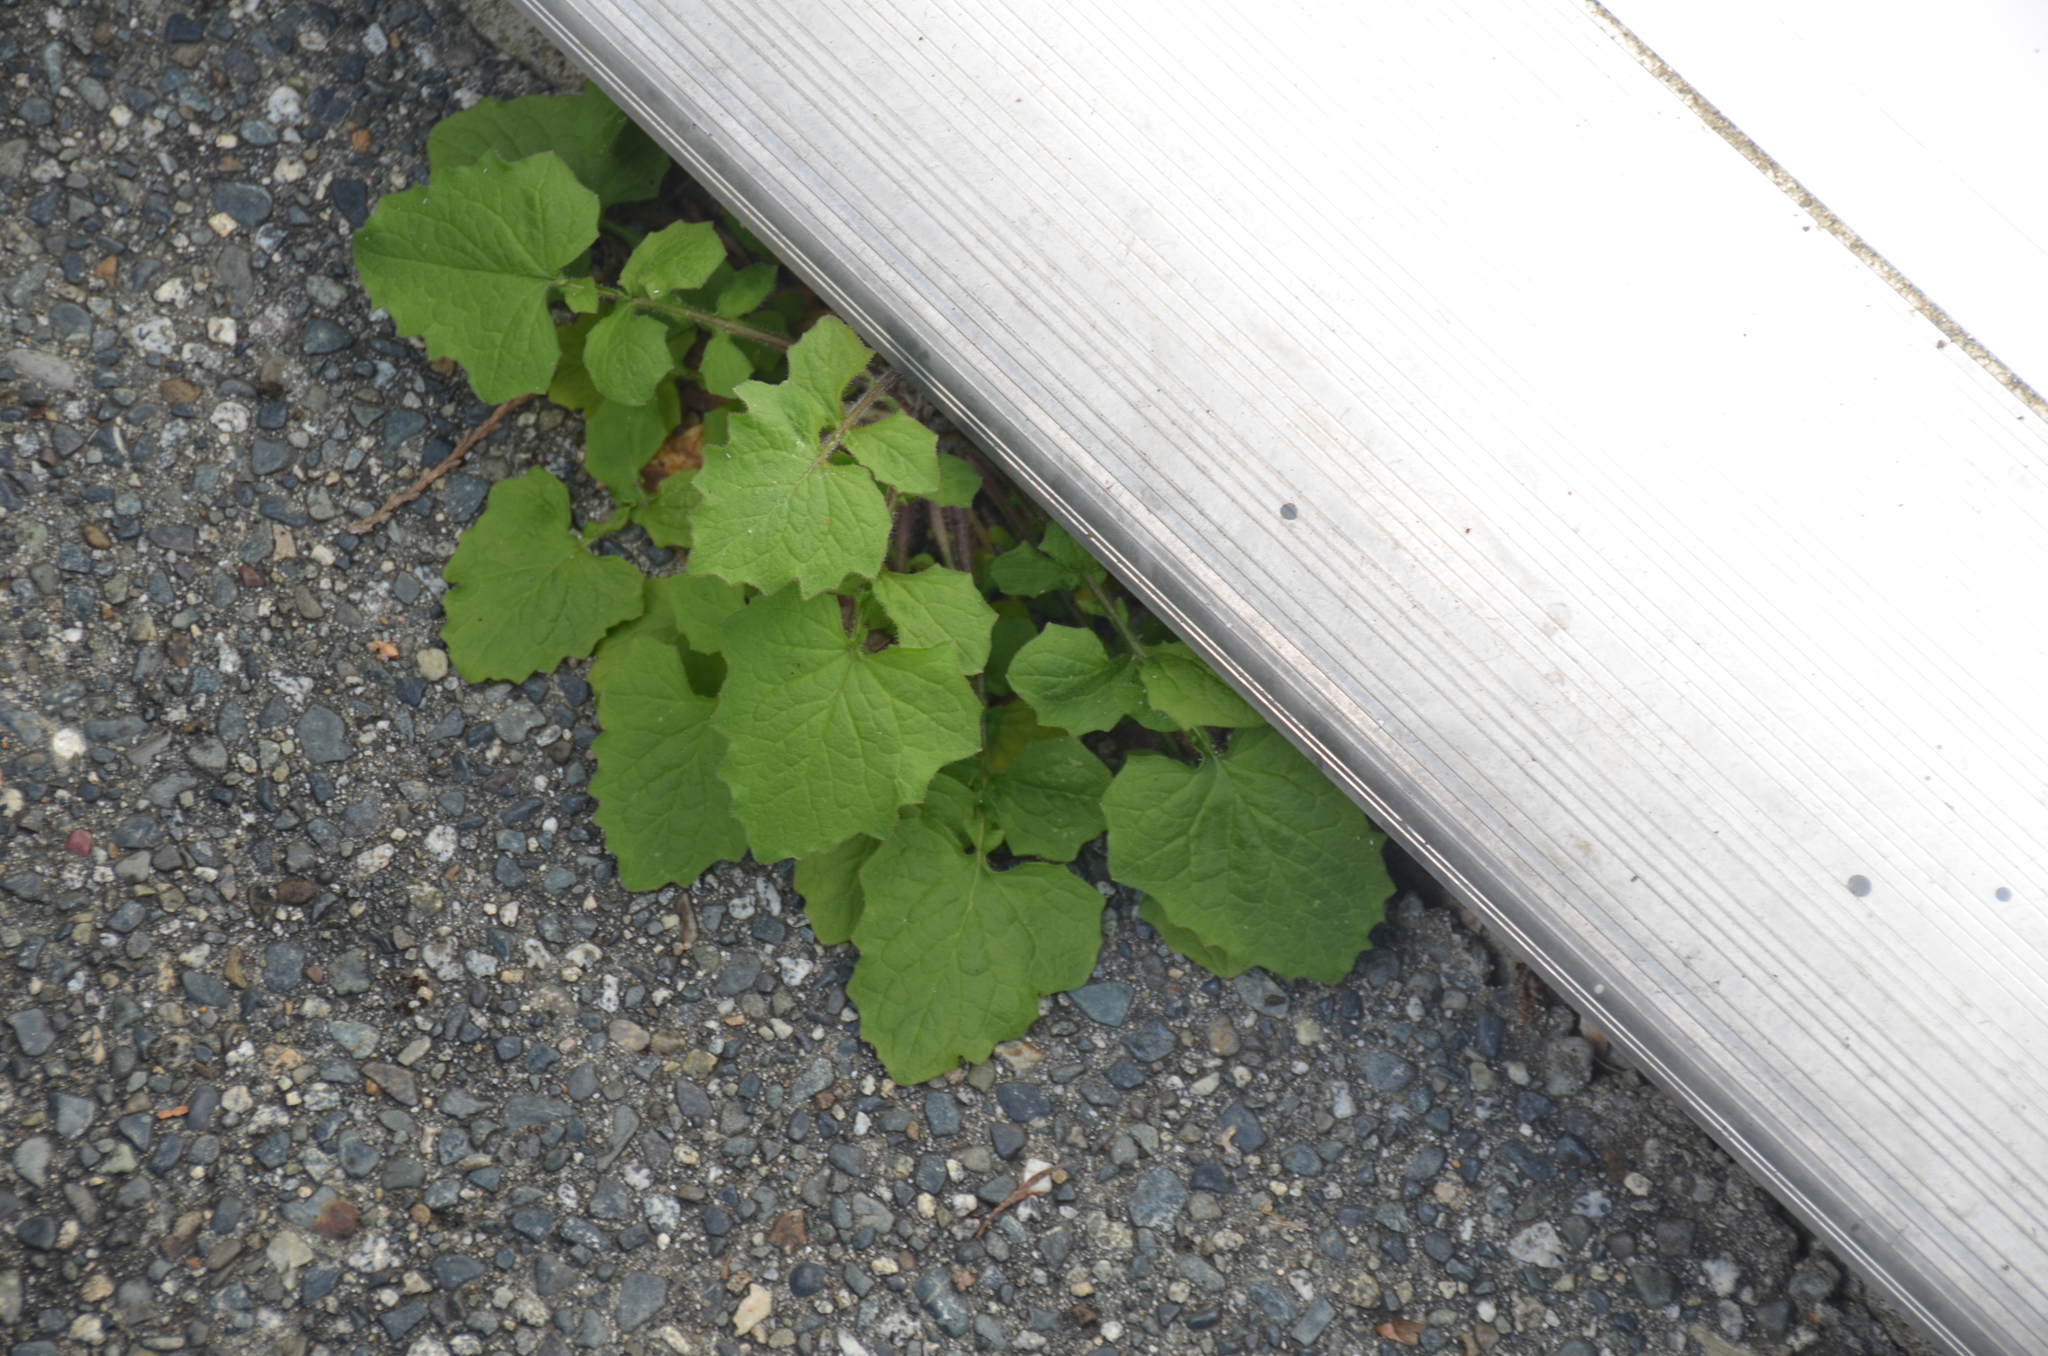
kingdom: Plantae
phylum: Tracheophyta
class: Magnoliopsida
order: Asterales
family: Asteraceae
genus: Lapsana
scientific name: Lapsana communis
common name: Nipplewort
